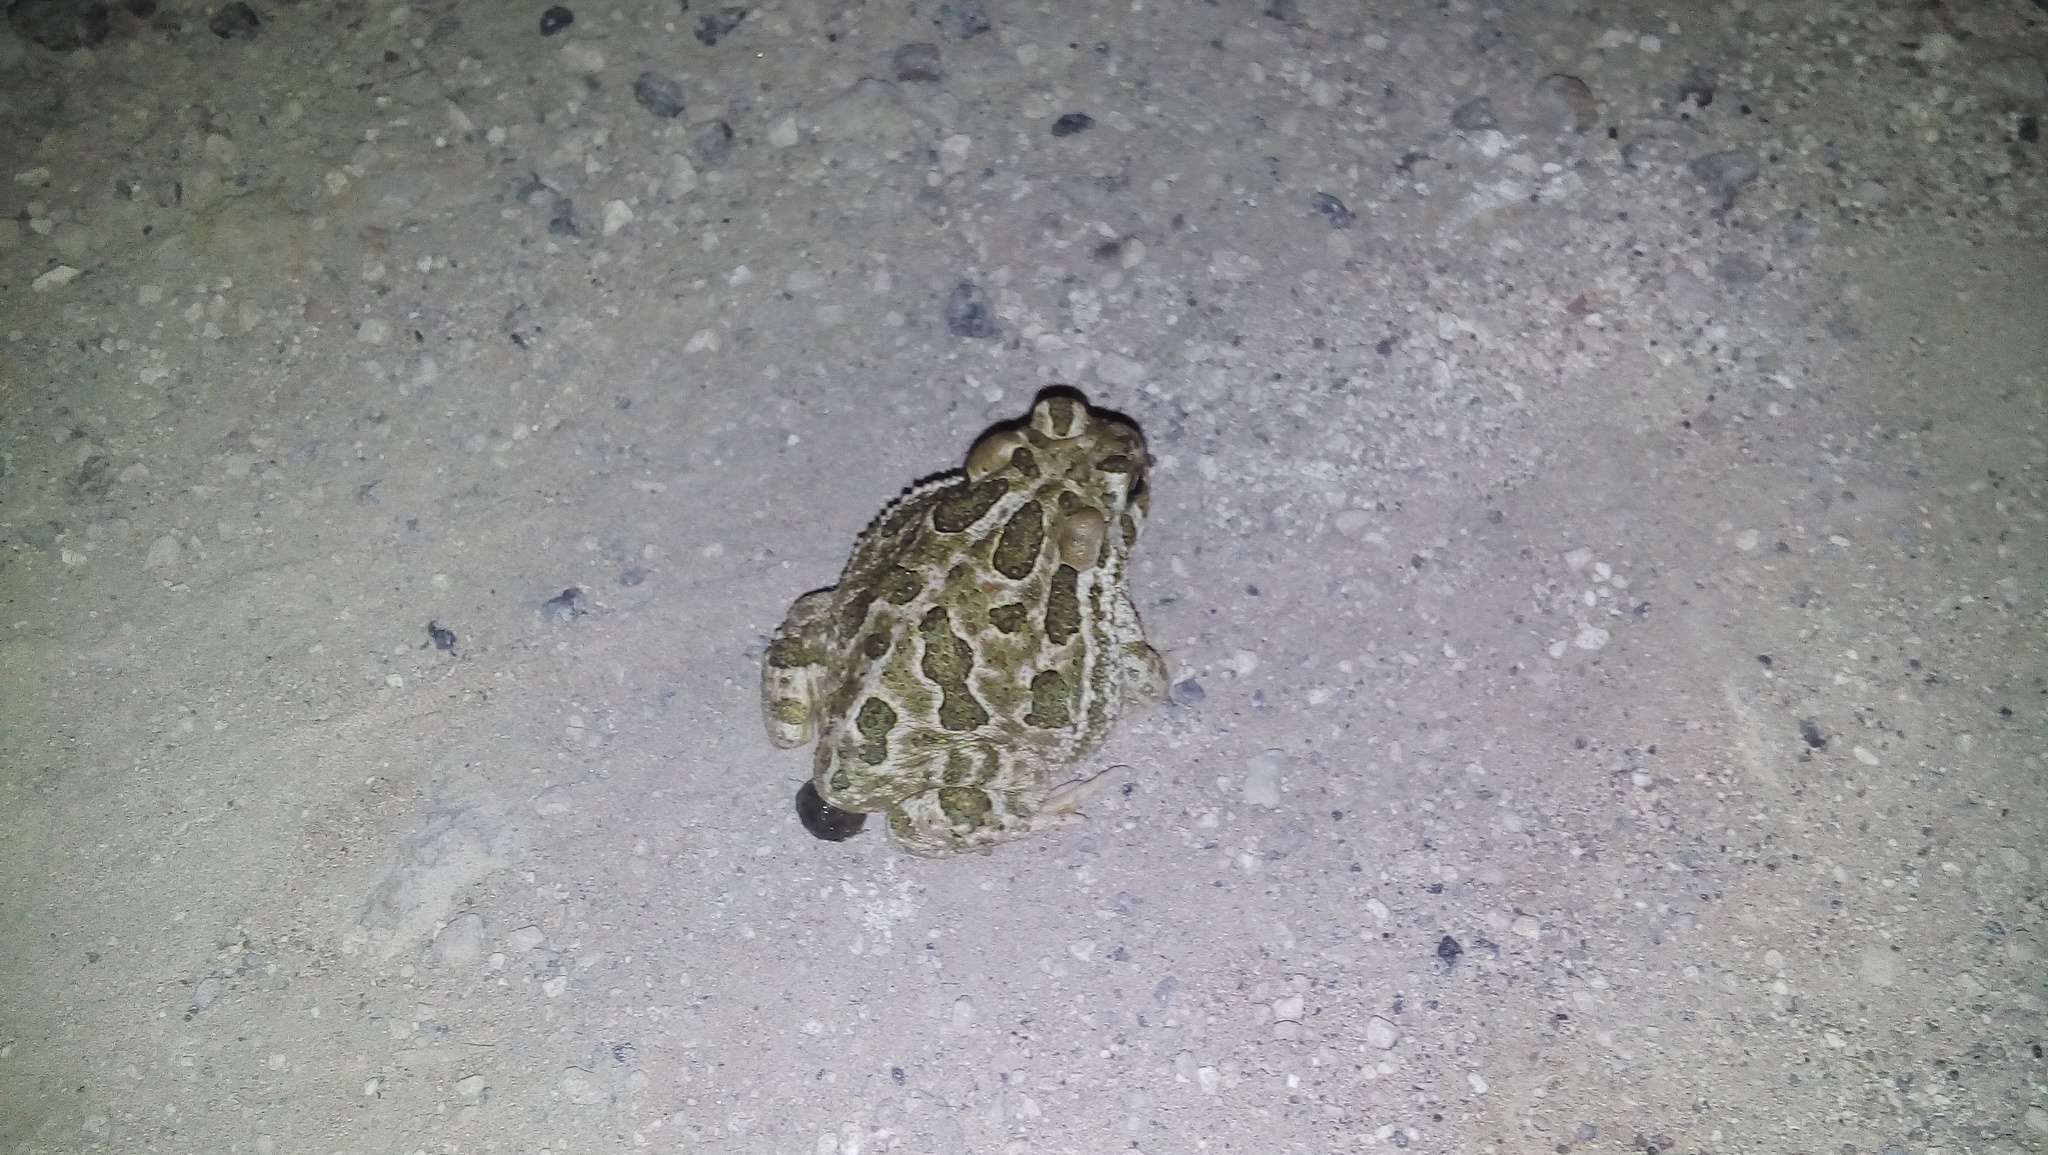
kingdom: Animalia
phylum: Chordata
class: Amphibia
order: Anura
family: Bufonidae
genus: Anaxyrus
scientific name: Anaxyrus cognatus
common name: Great plains toad
